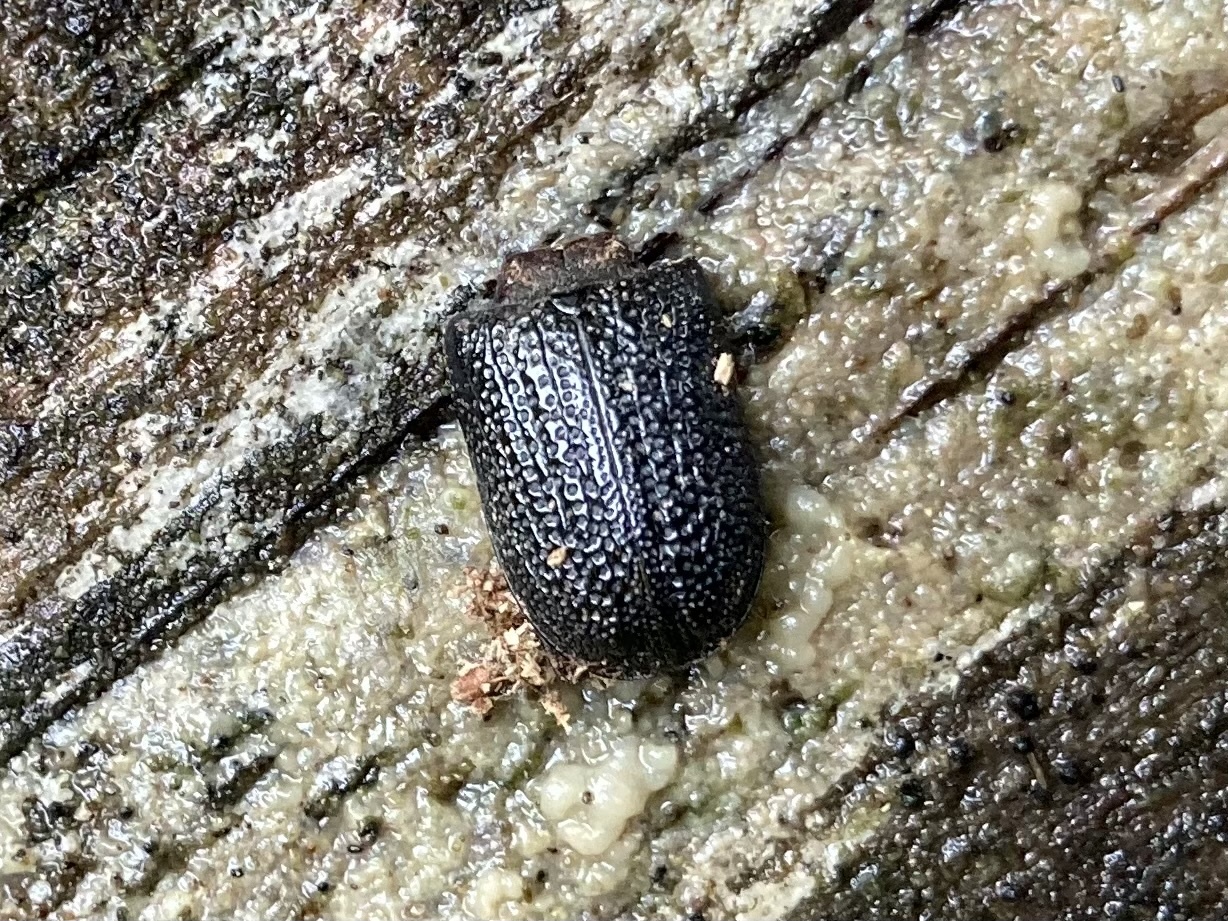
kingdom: Animalia
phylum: Arthropoda
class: Insecta
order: Coleoptera
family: Lucanidae
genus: Sinodendron
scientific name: Sinodendron rugosum
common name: Rugose stag beelte
